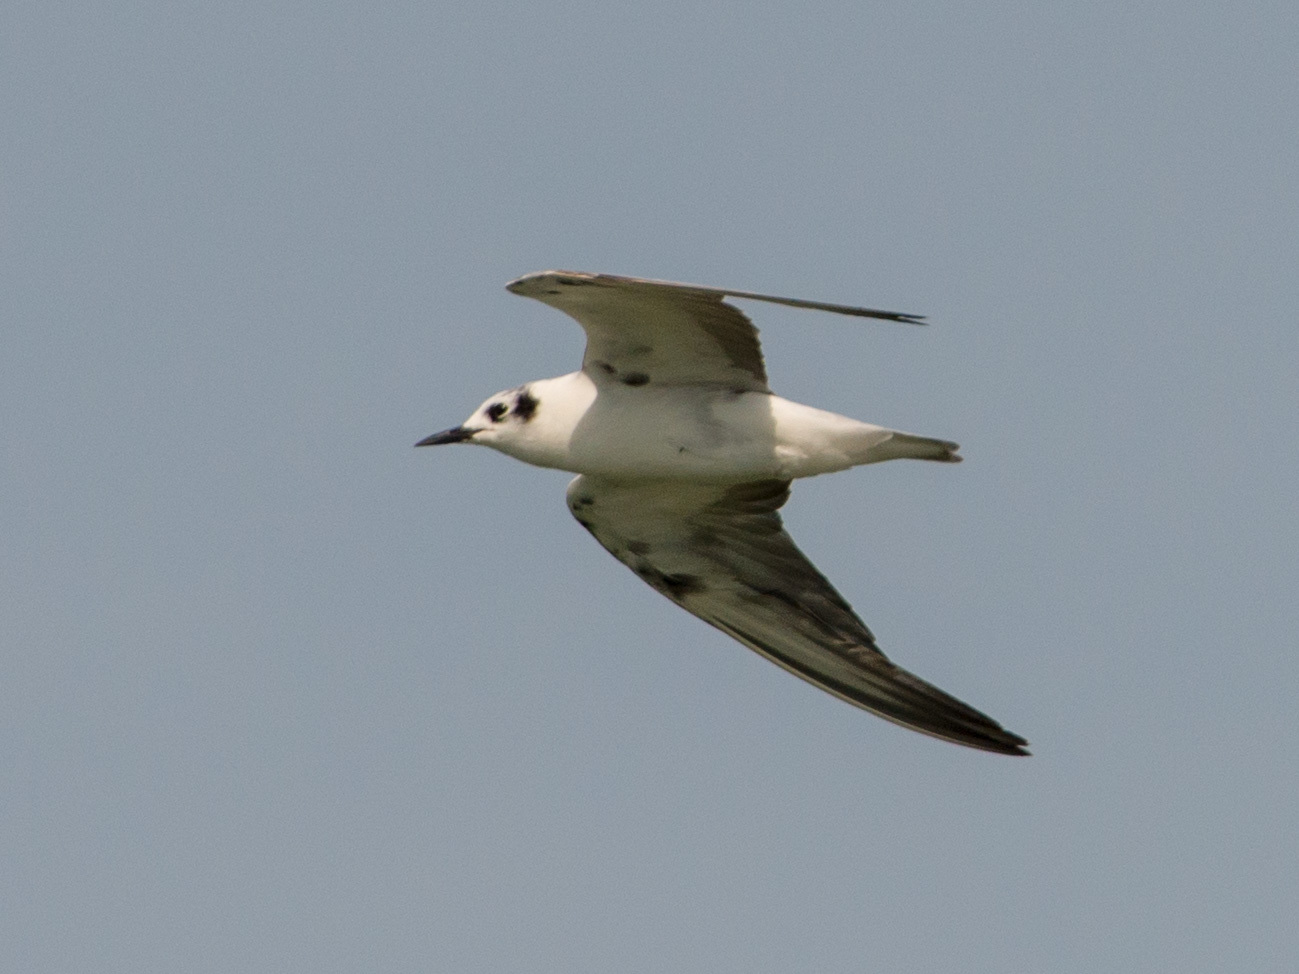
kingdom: Animalia
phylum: Chordata
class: Aves
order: Charadriiformes
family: Laridae
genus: Gelochelidon
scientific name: Gelochelidon nilotica
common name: Gull-billed tern
